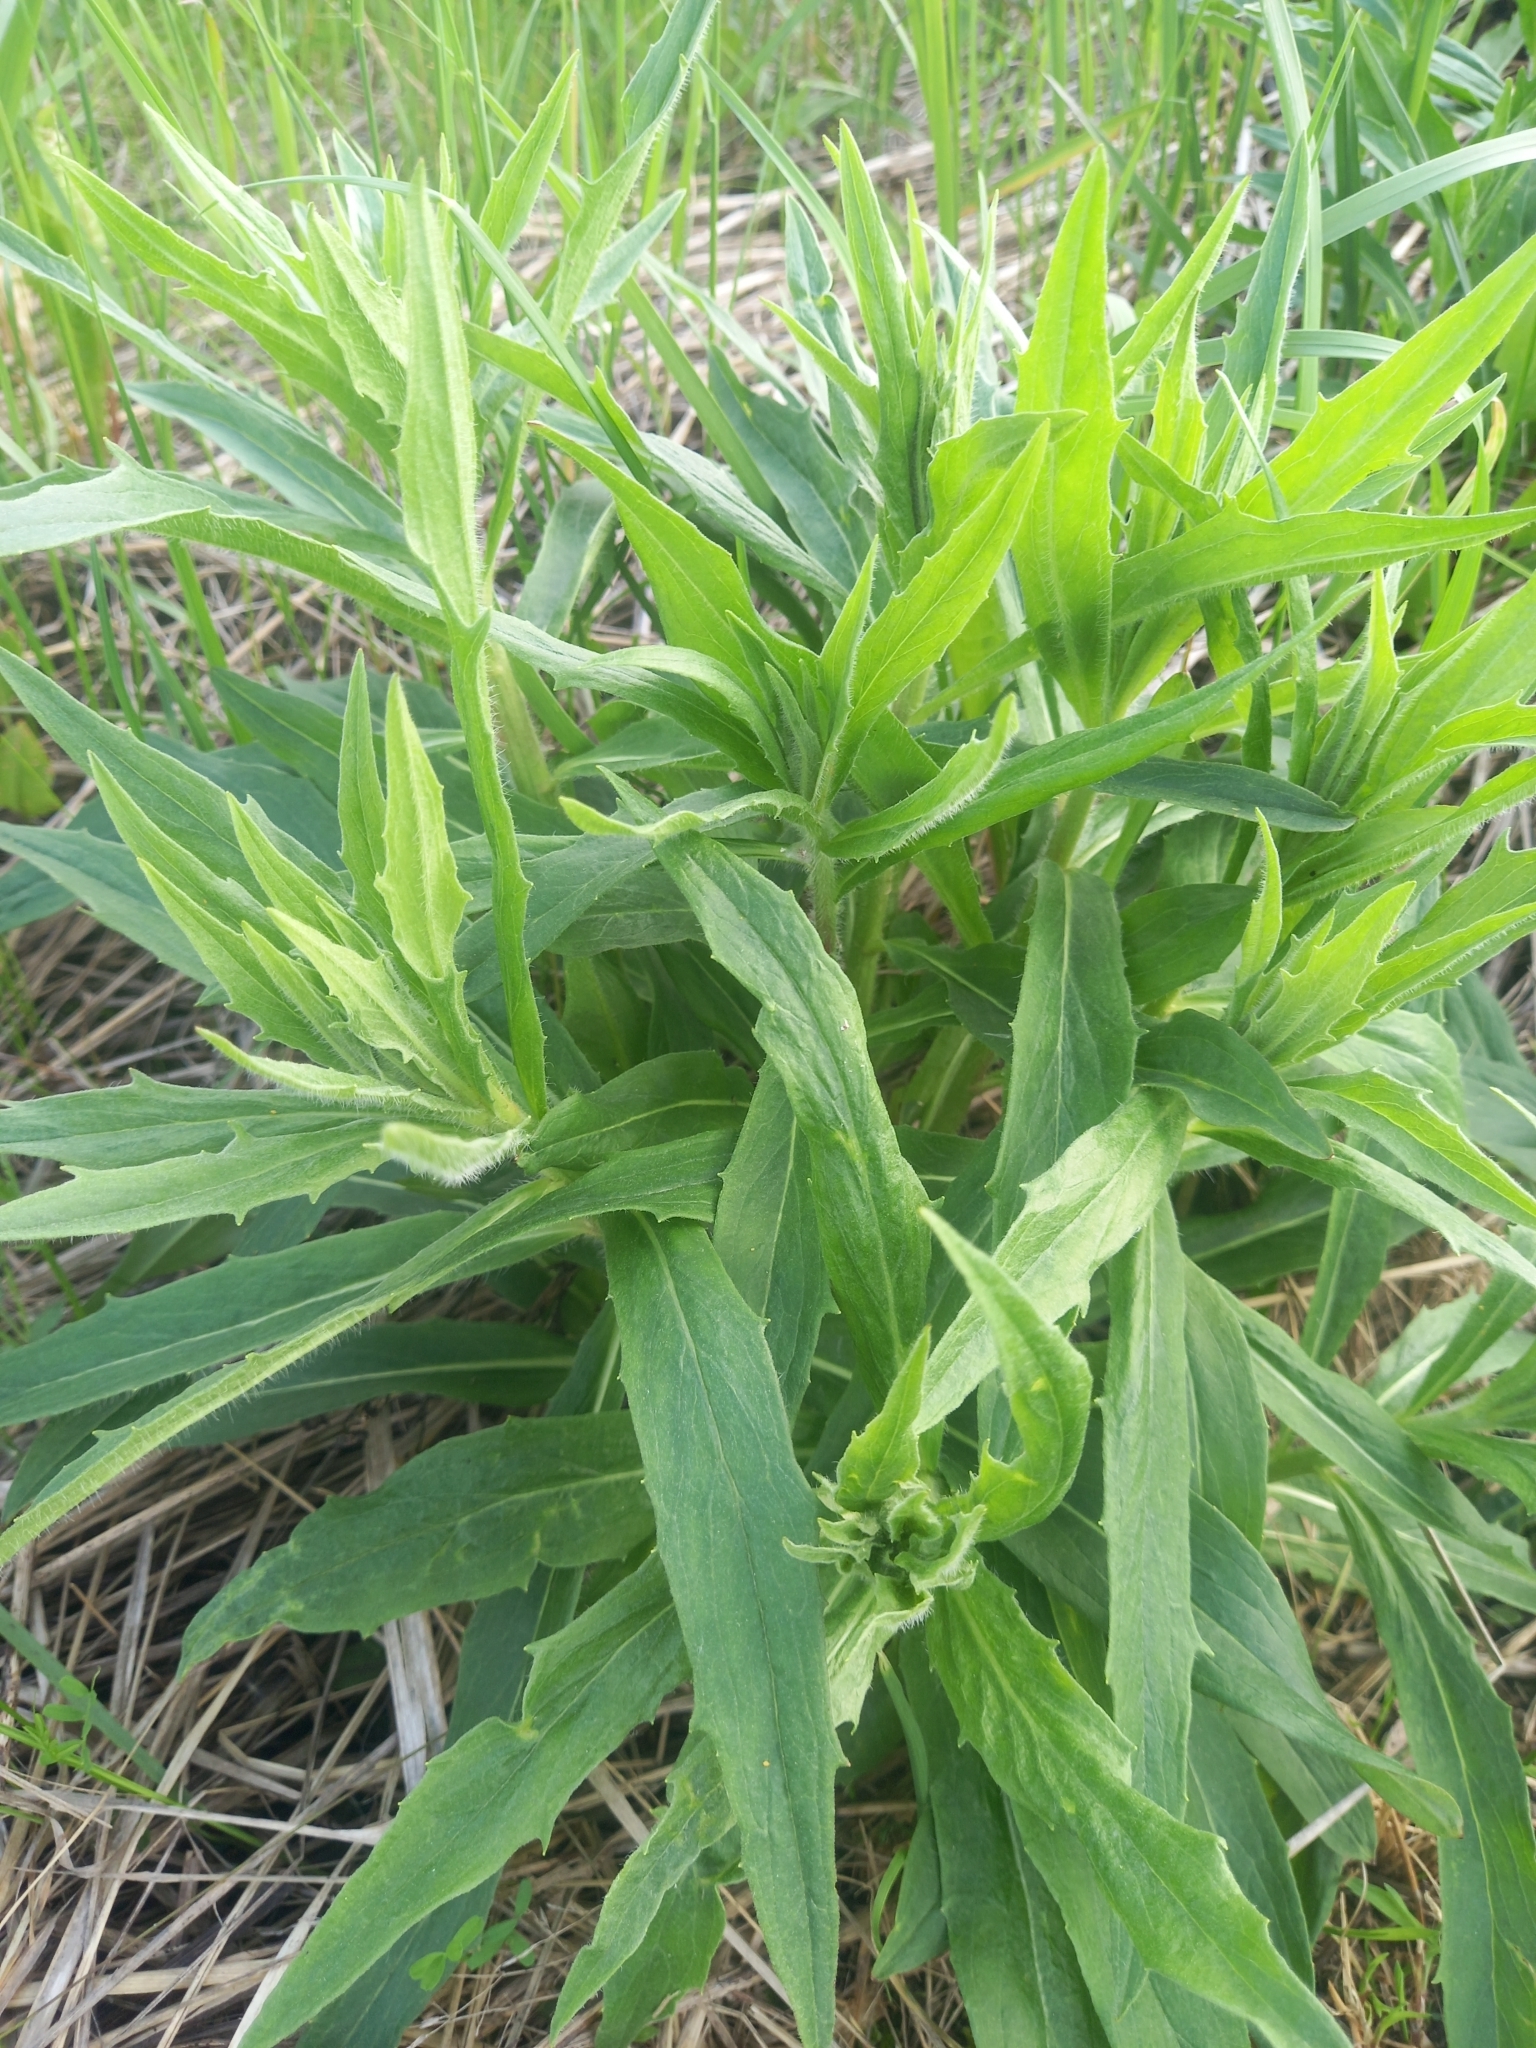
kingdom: Plantae
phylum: Tracheophyta
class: Magnoliopsida
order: Asterales
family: Asteraceae
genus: Hieracium
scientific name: Hieracium umbellatum
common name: Northern hawkweed
